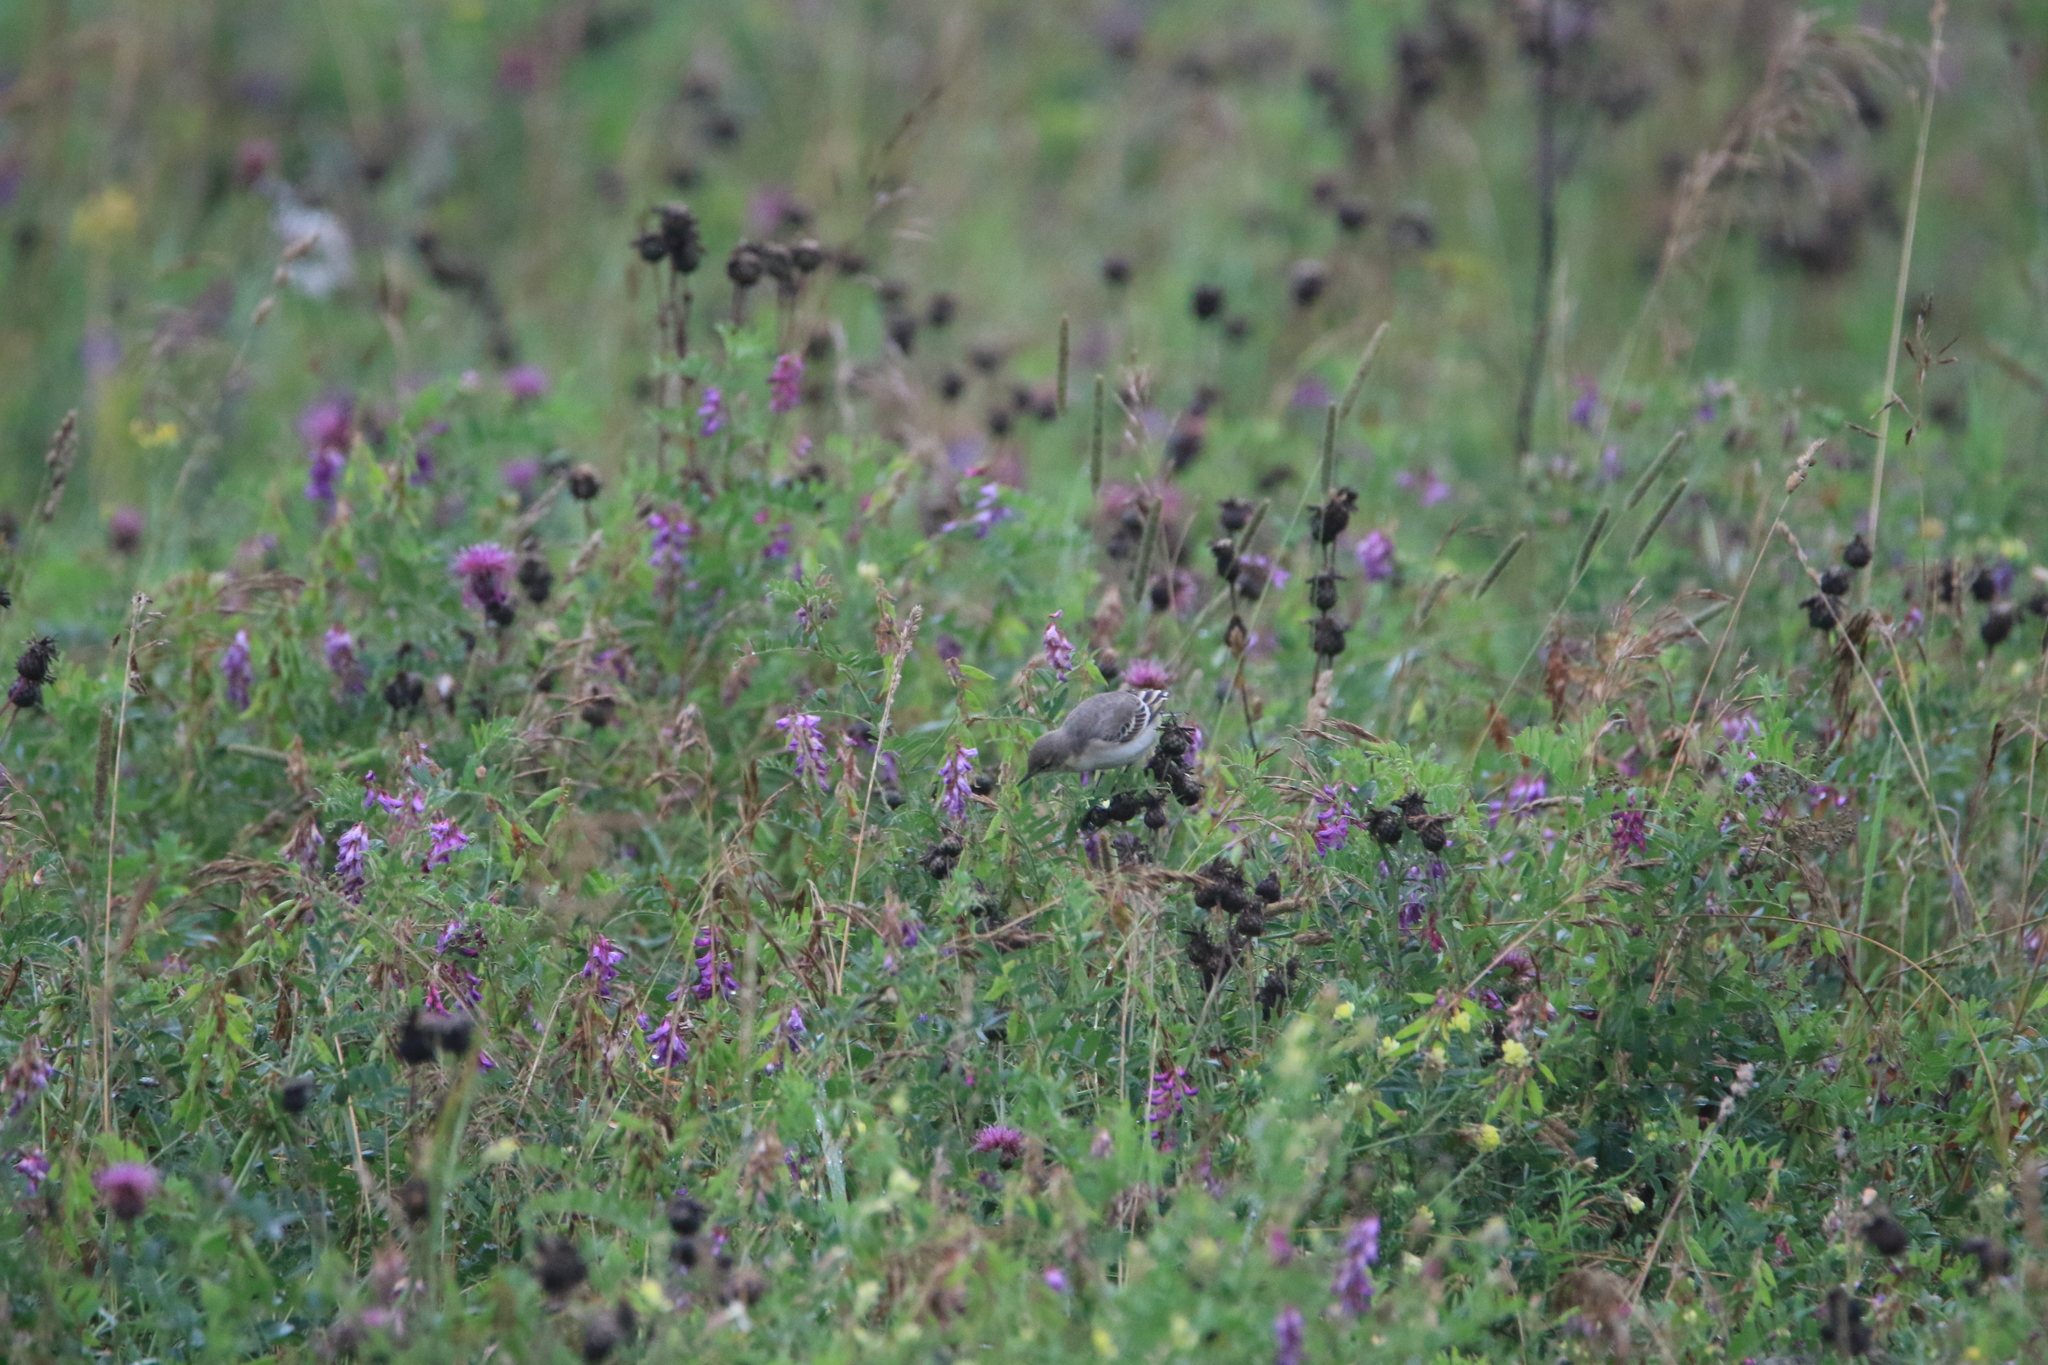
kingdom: Animalia
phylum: Chordata
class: Aves
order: Passeriformes
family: Motacillidae
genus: Motacilla
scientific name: Motacilla flava
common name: Western yellow wagtail
